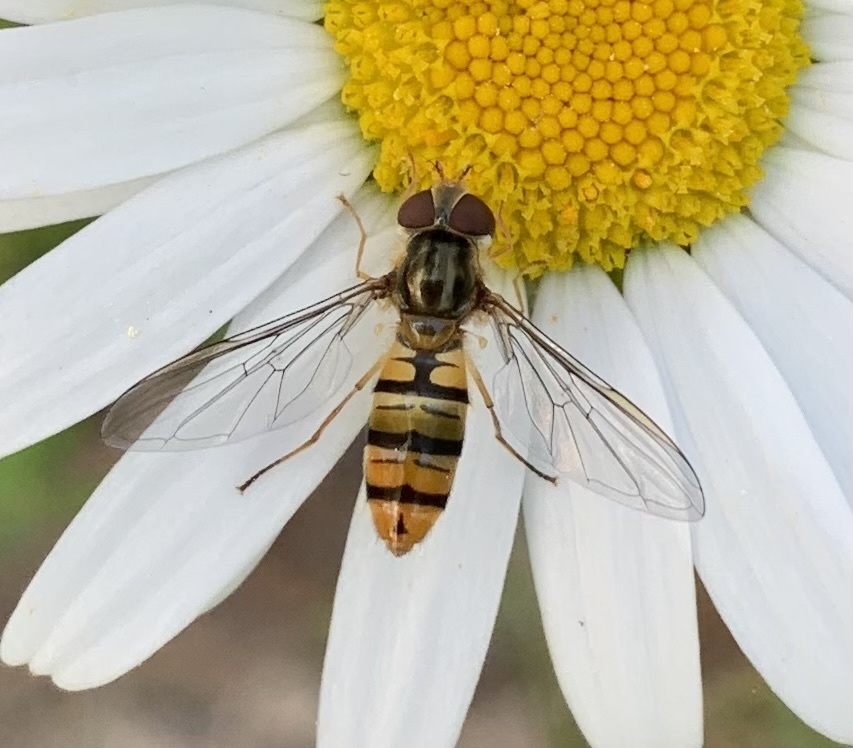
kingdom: Animalia
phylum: Arthropoda
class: Insecta
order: Diptera
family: Syrphidae
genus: Episyrphus
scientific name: Episyrphus balteatus
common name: Marmalade hoverfly
